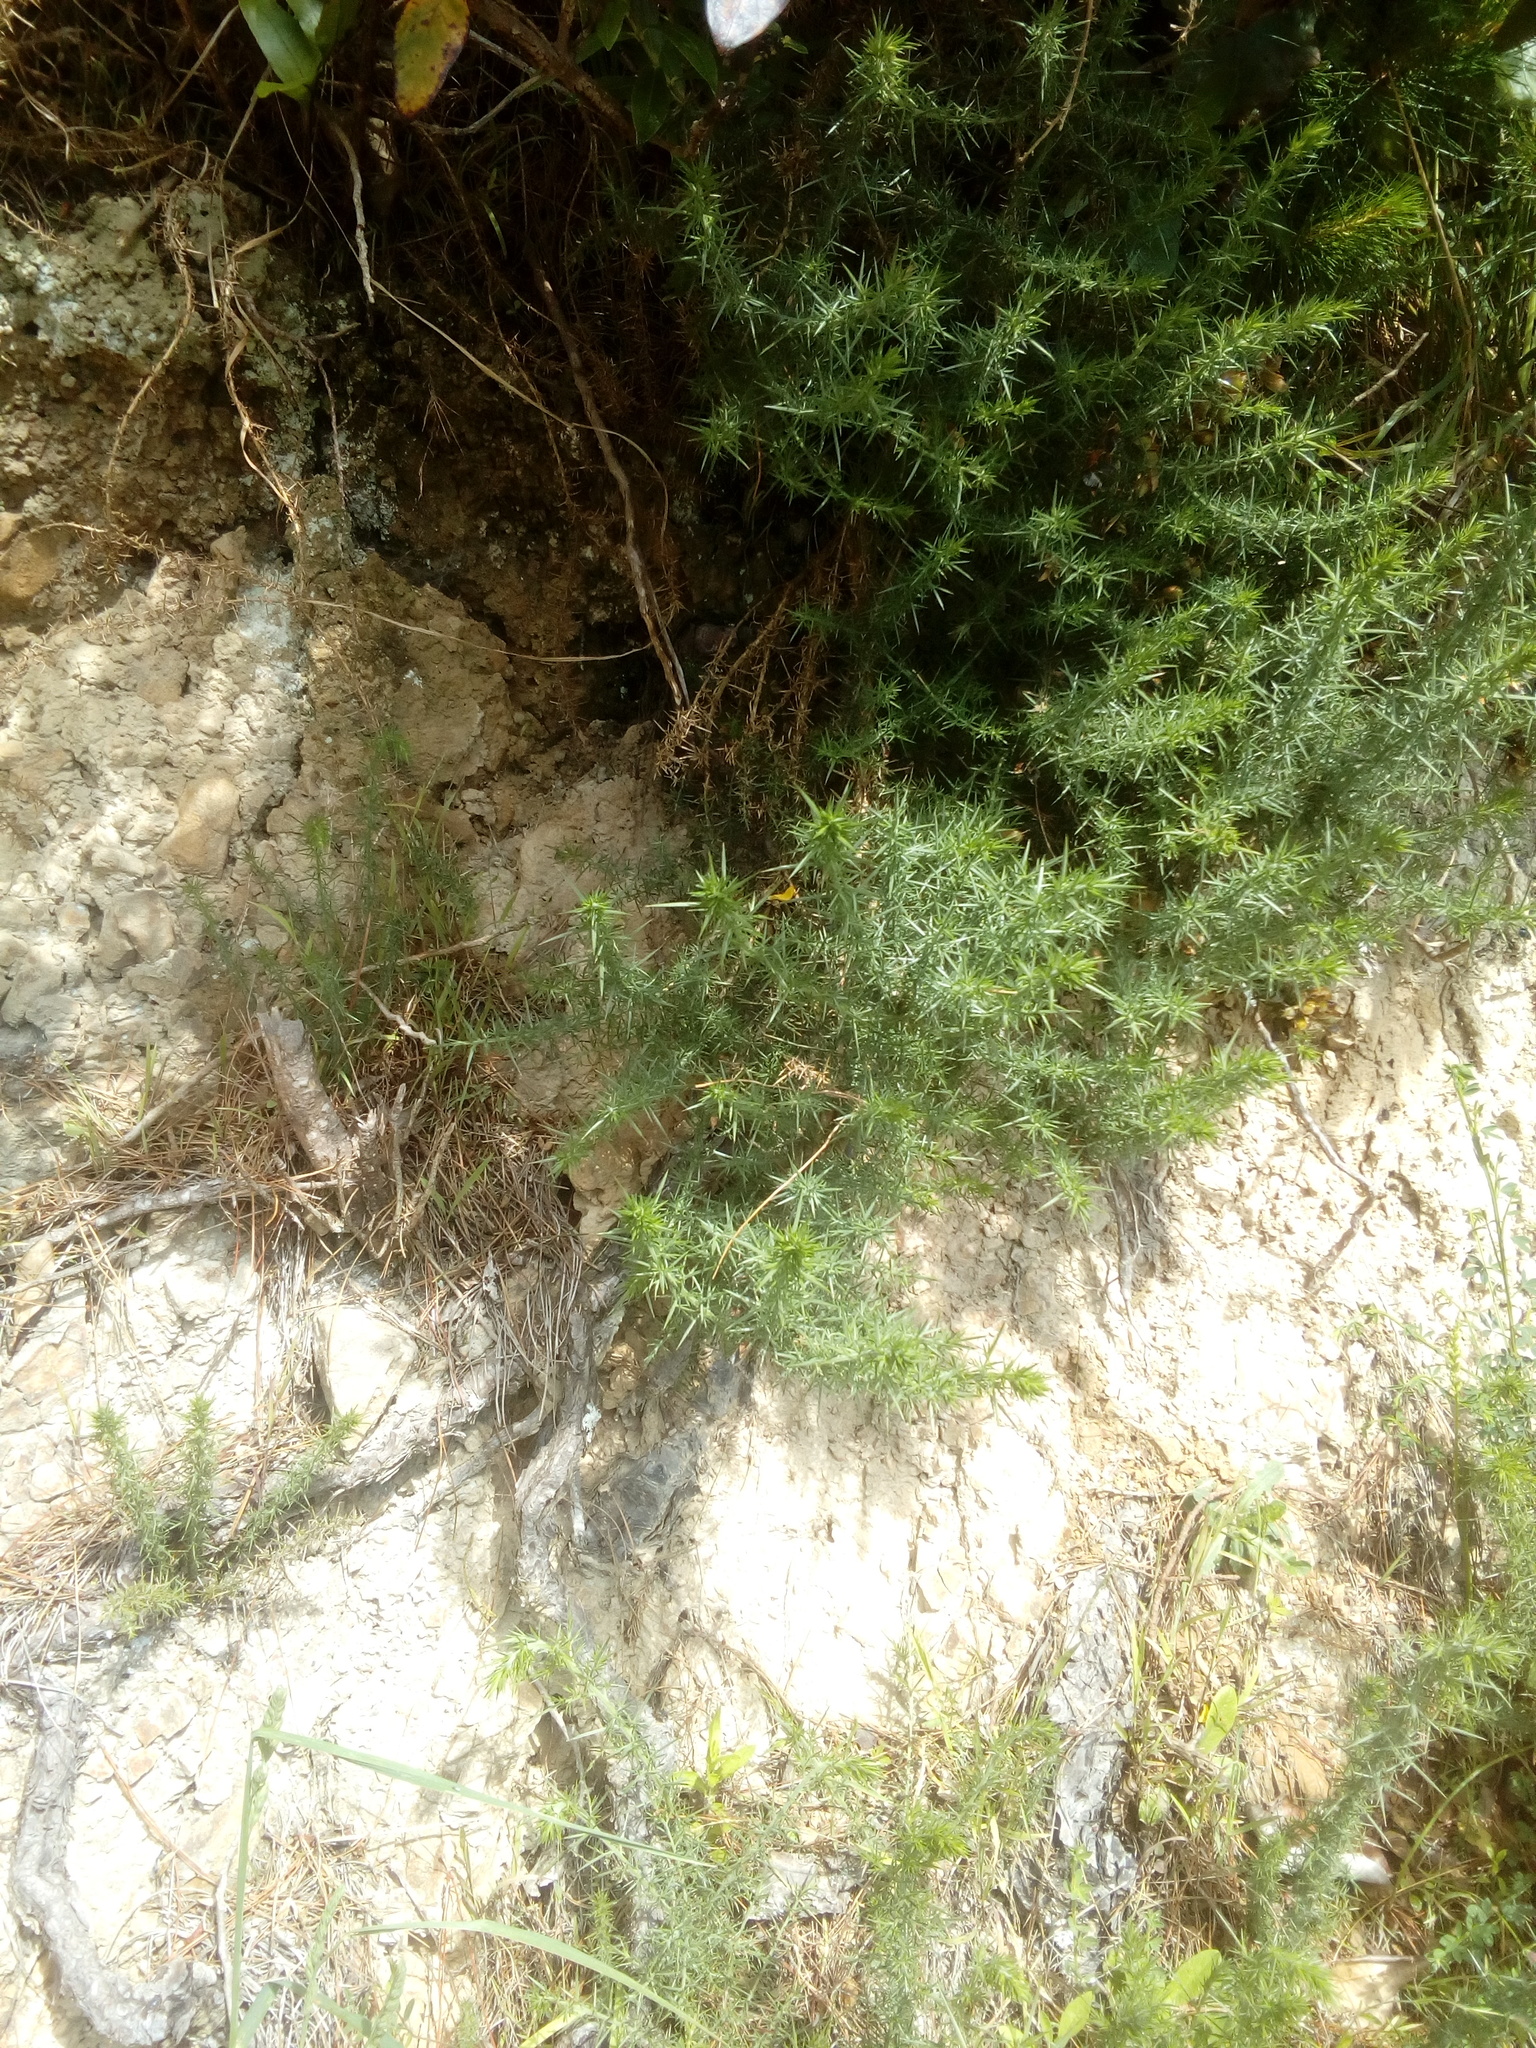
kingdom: Plantae
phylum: Tracheophyta
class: Magnoliopsida
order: Fabales
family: Fabaceae
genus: Ulex
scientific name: Ulex europaeus
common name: Common gorse
